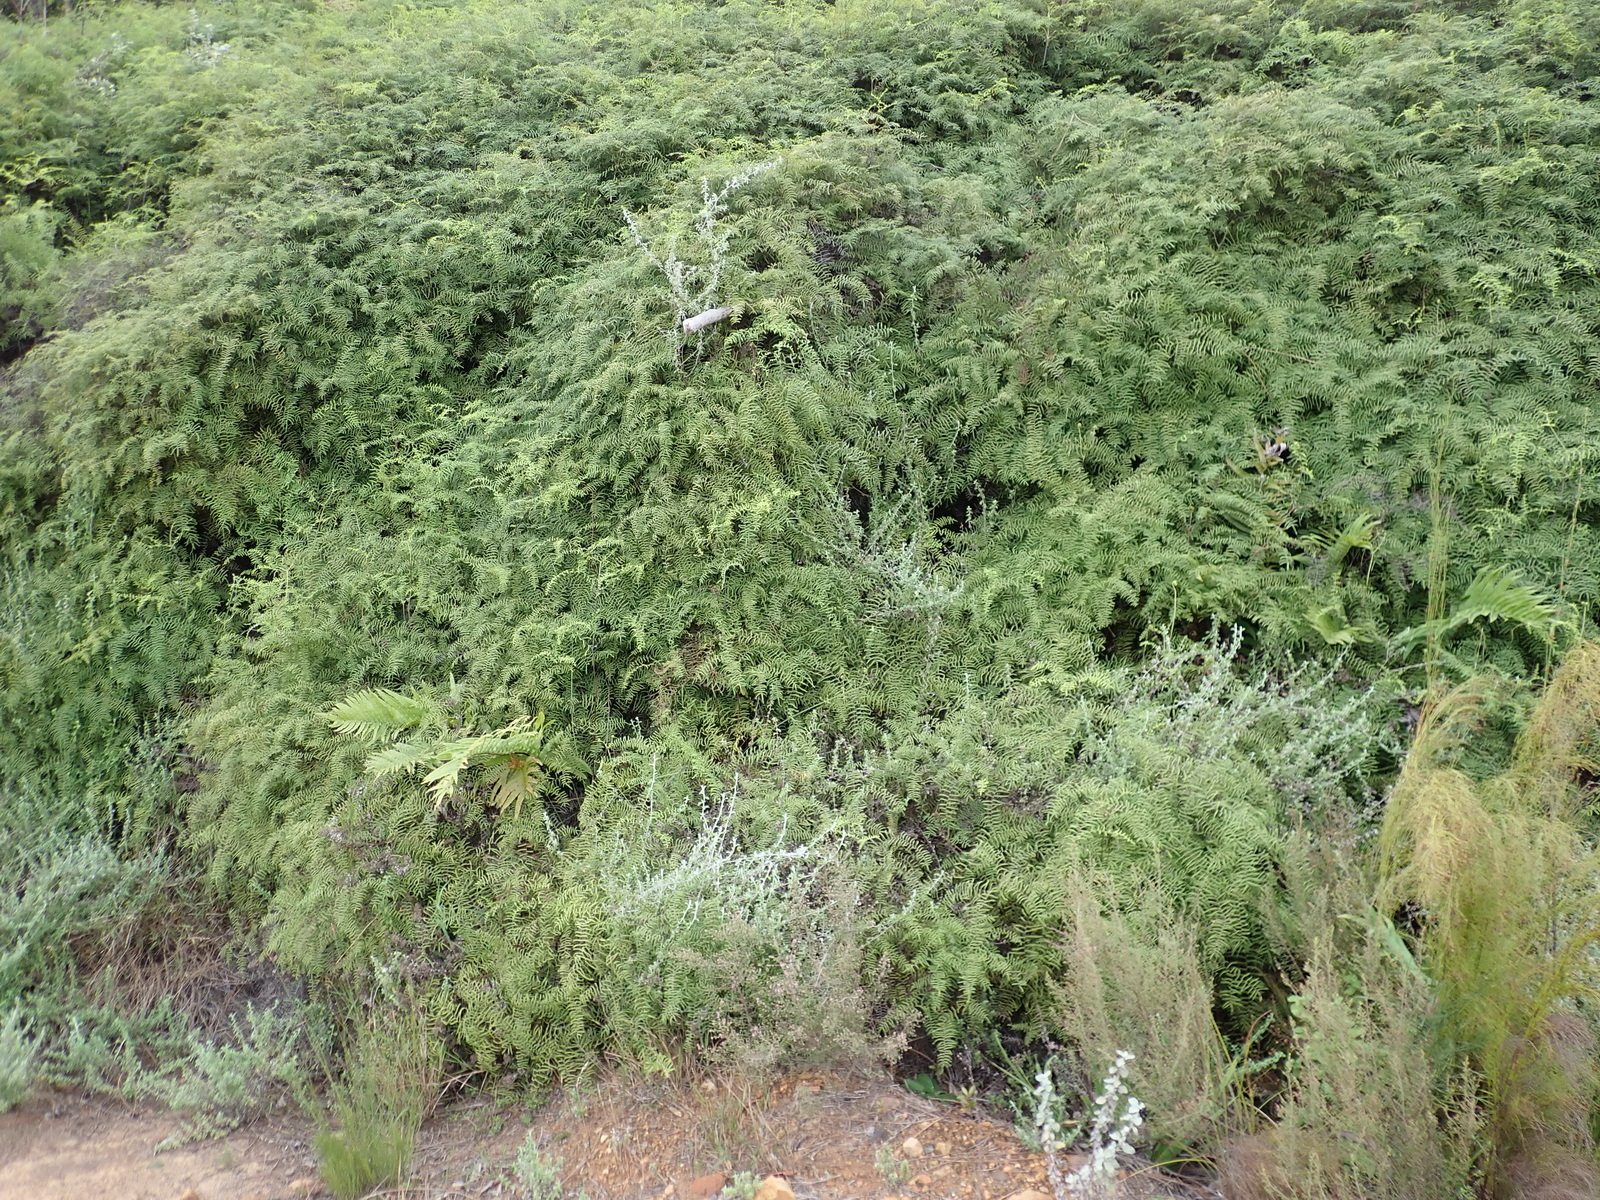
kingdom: Plantae
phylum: Tracheophyta
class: Polypodiopsida
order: Gleicheniales
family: Gleicheniaceae
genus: Gleichenia
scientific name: Gleichenia polypodioides
